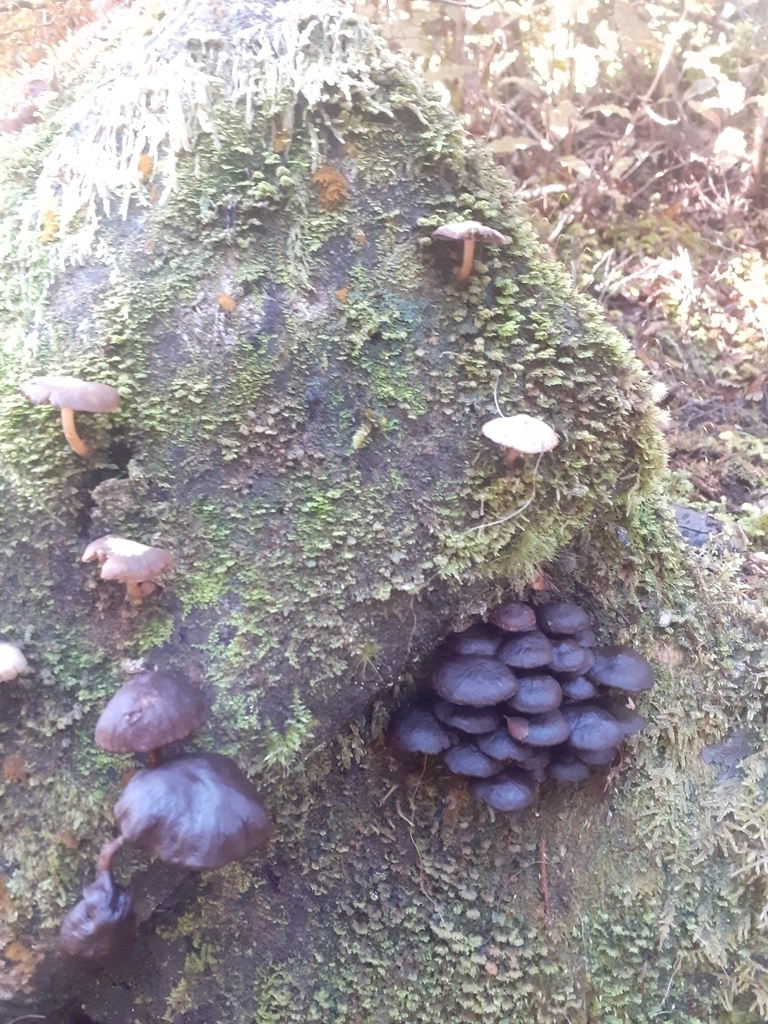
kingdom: Fungi
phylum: Basidiomycota
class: Agaricomycetes
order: Agaricales
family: Strophariaceae
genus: Hypholoma
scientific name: Hypholoma brunneum
